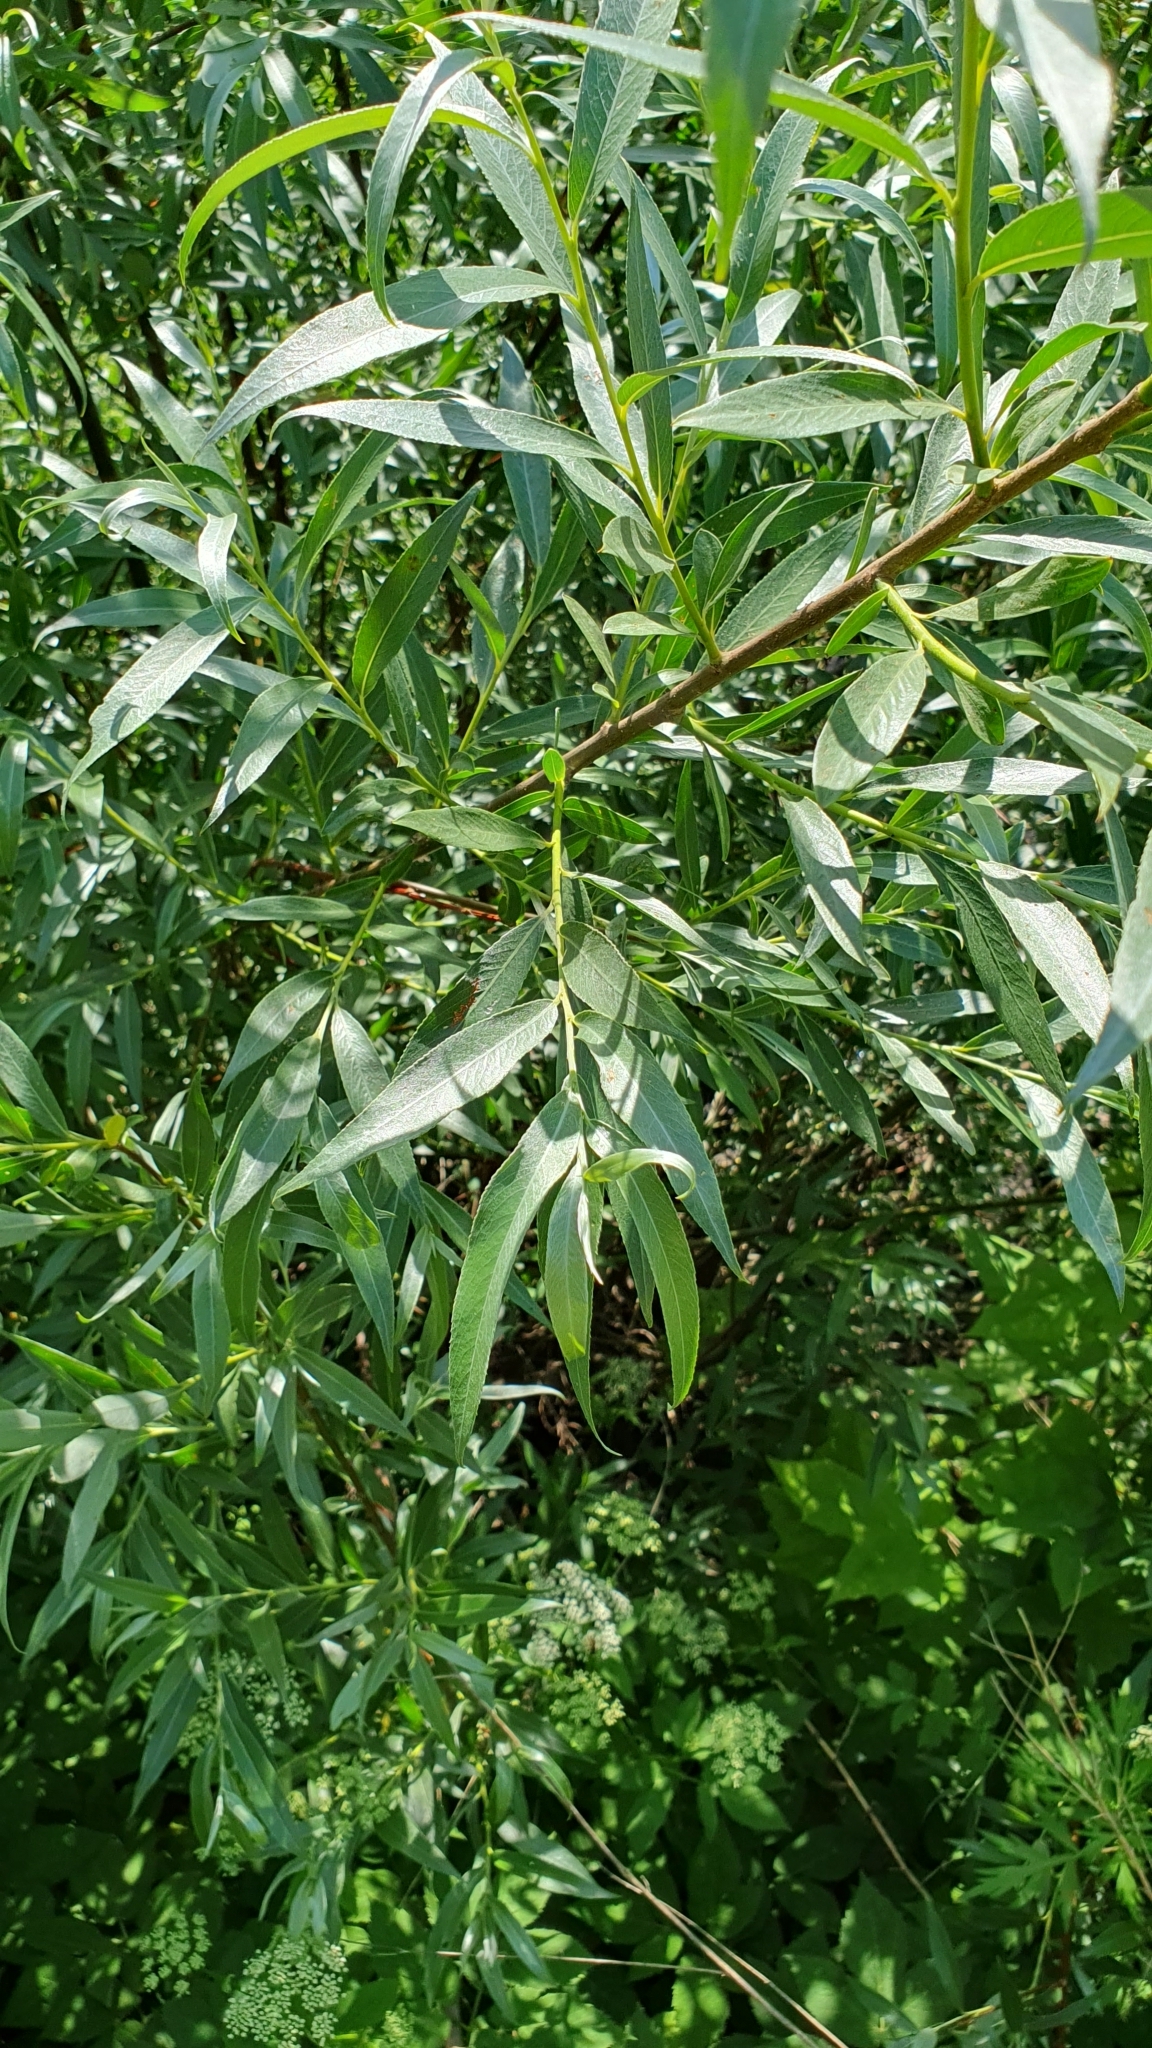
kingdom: Plantae
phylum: Tracheophyta
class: Magnoliopsida
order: Malpighiales
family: Salicaceae
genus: Salix
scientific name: Salix alba
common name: White willow
